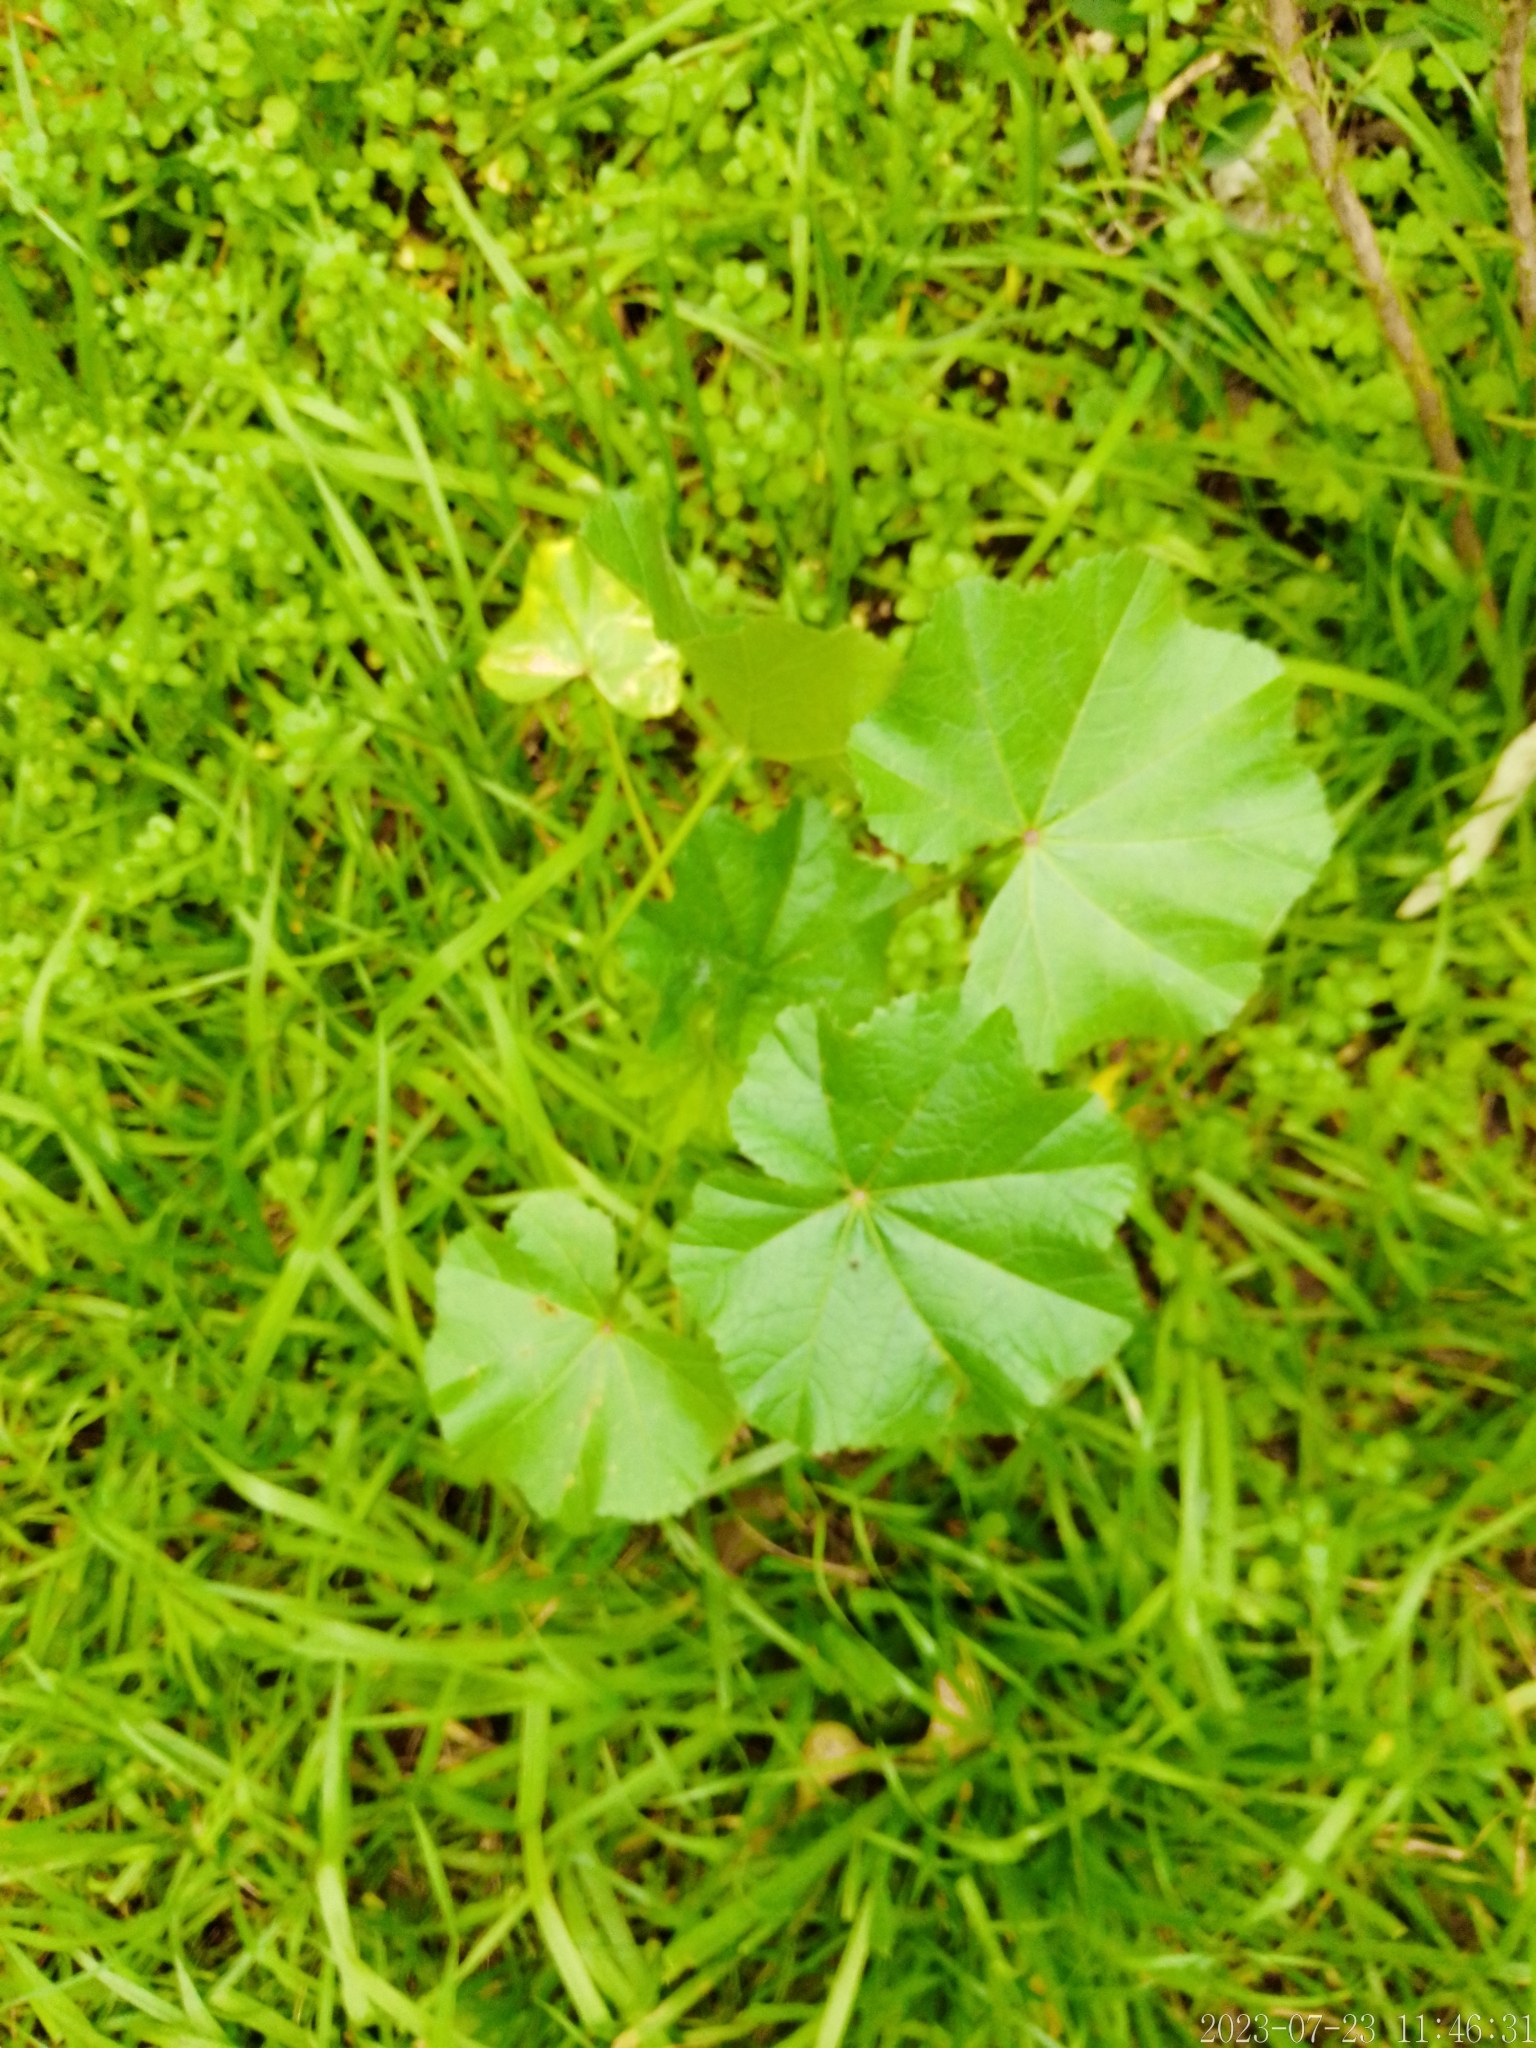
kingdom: Plantae
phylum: Tracheophyta
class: Magnoliopsida
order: Malvales
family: Malvaceae
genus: Malva
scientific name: Malva parviflora
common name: Least mallow
